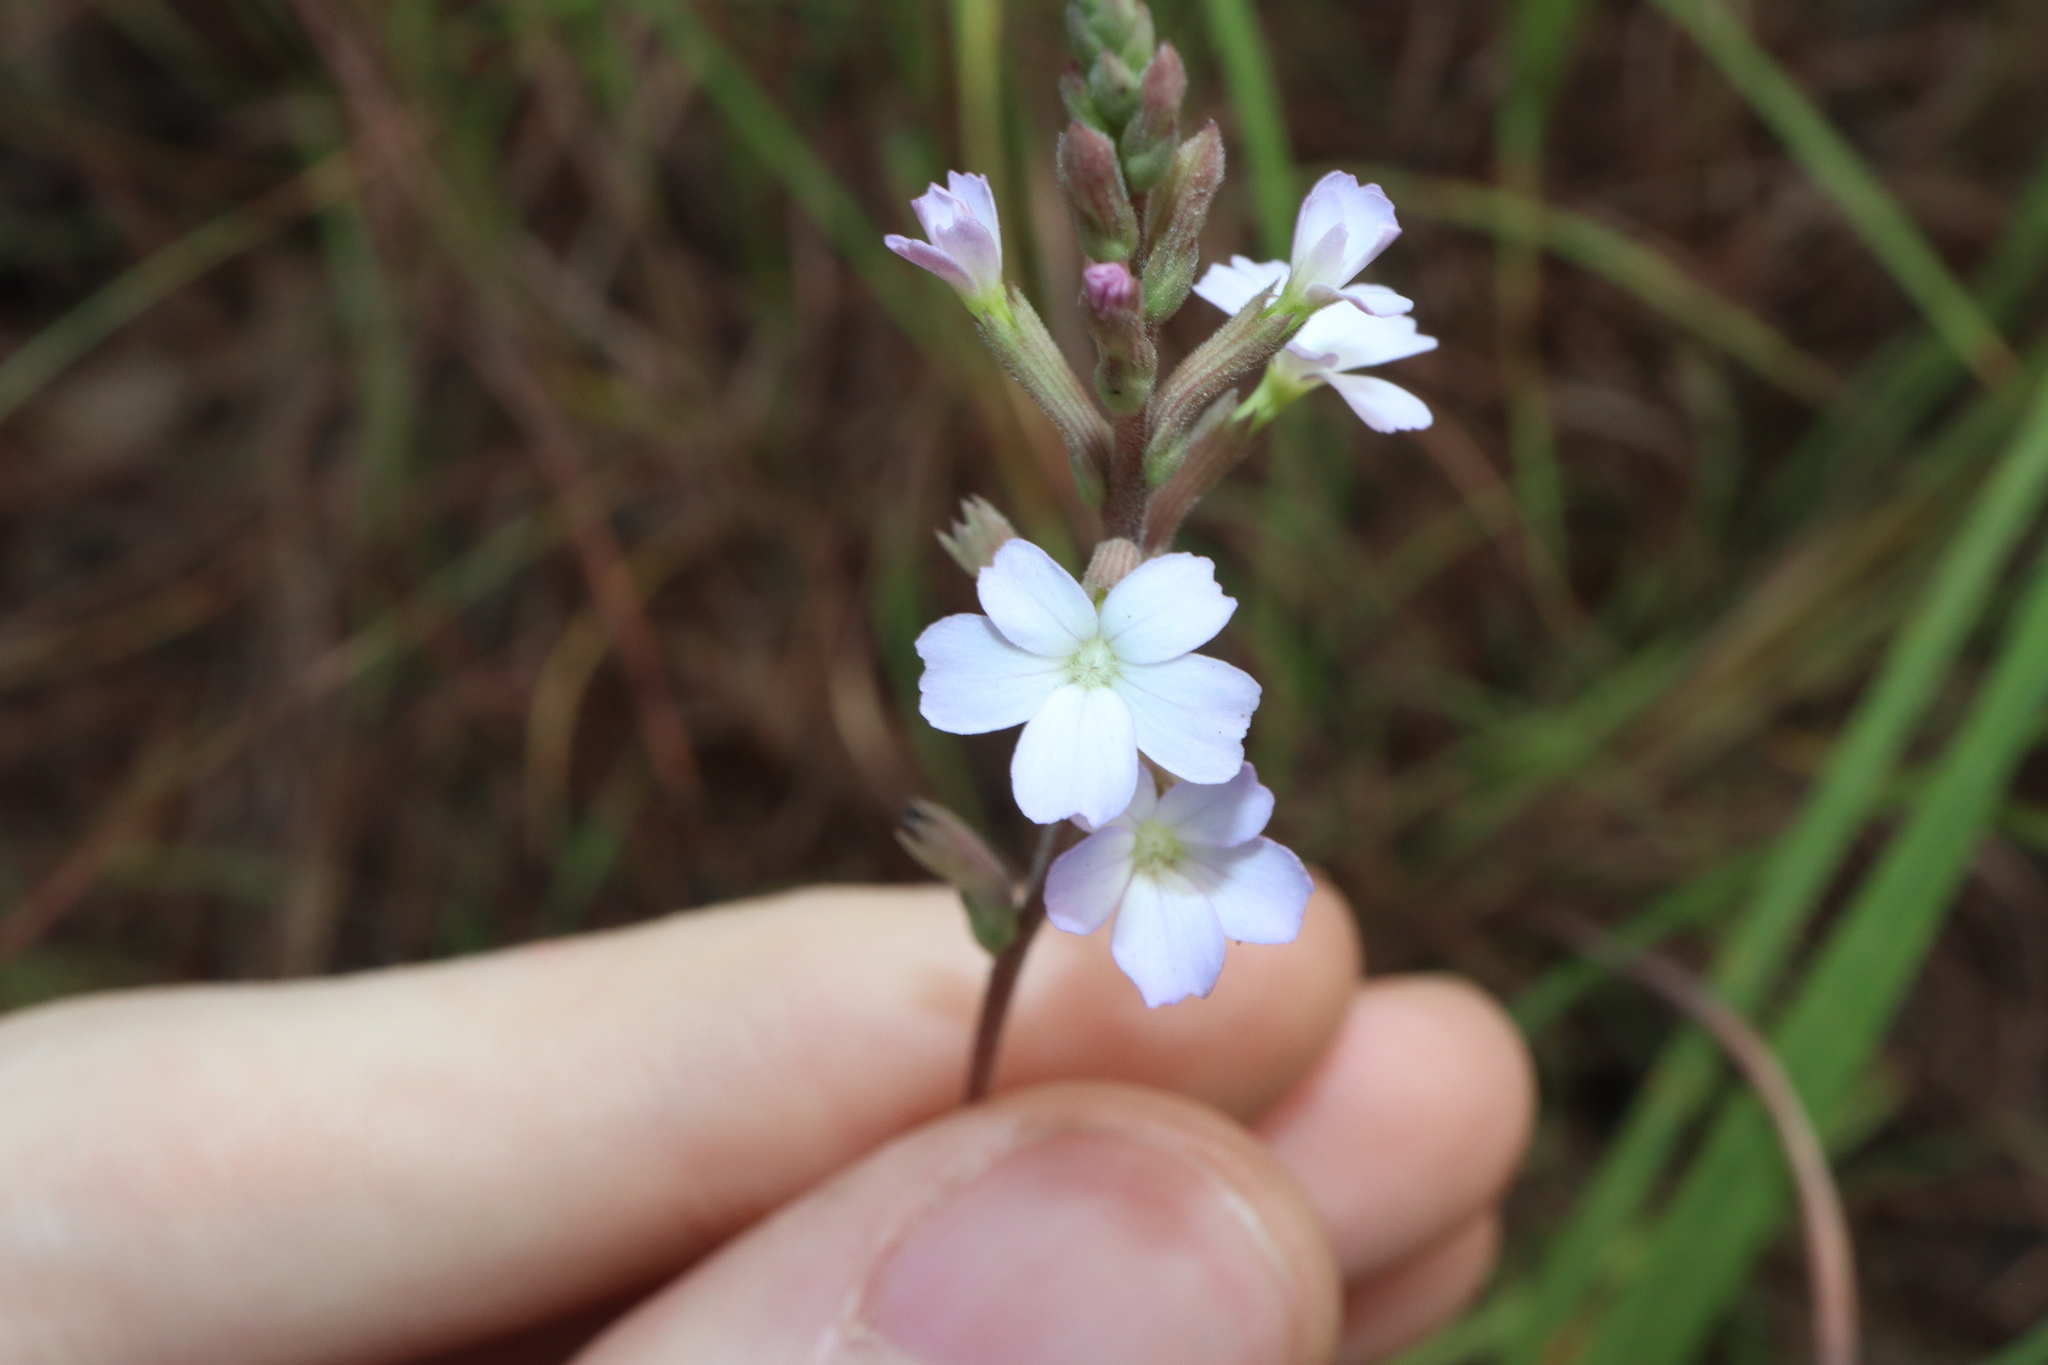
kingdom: Plantae
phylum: Tracheophyta
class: Magnoliopsida
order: Lamiales
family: Orobanchaceae
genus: Buchnera
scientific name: Buchnera linearis
